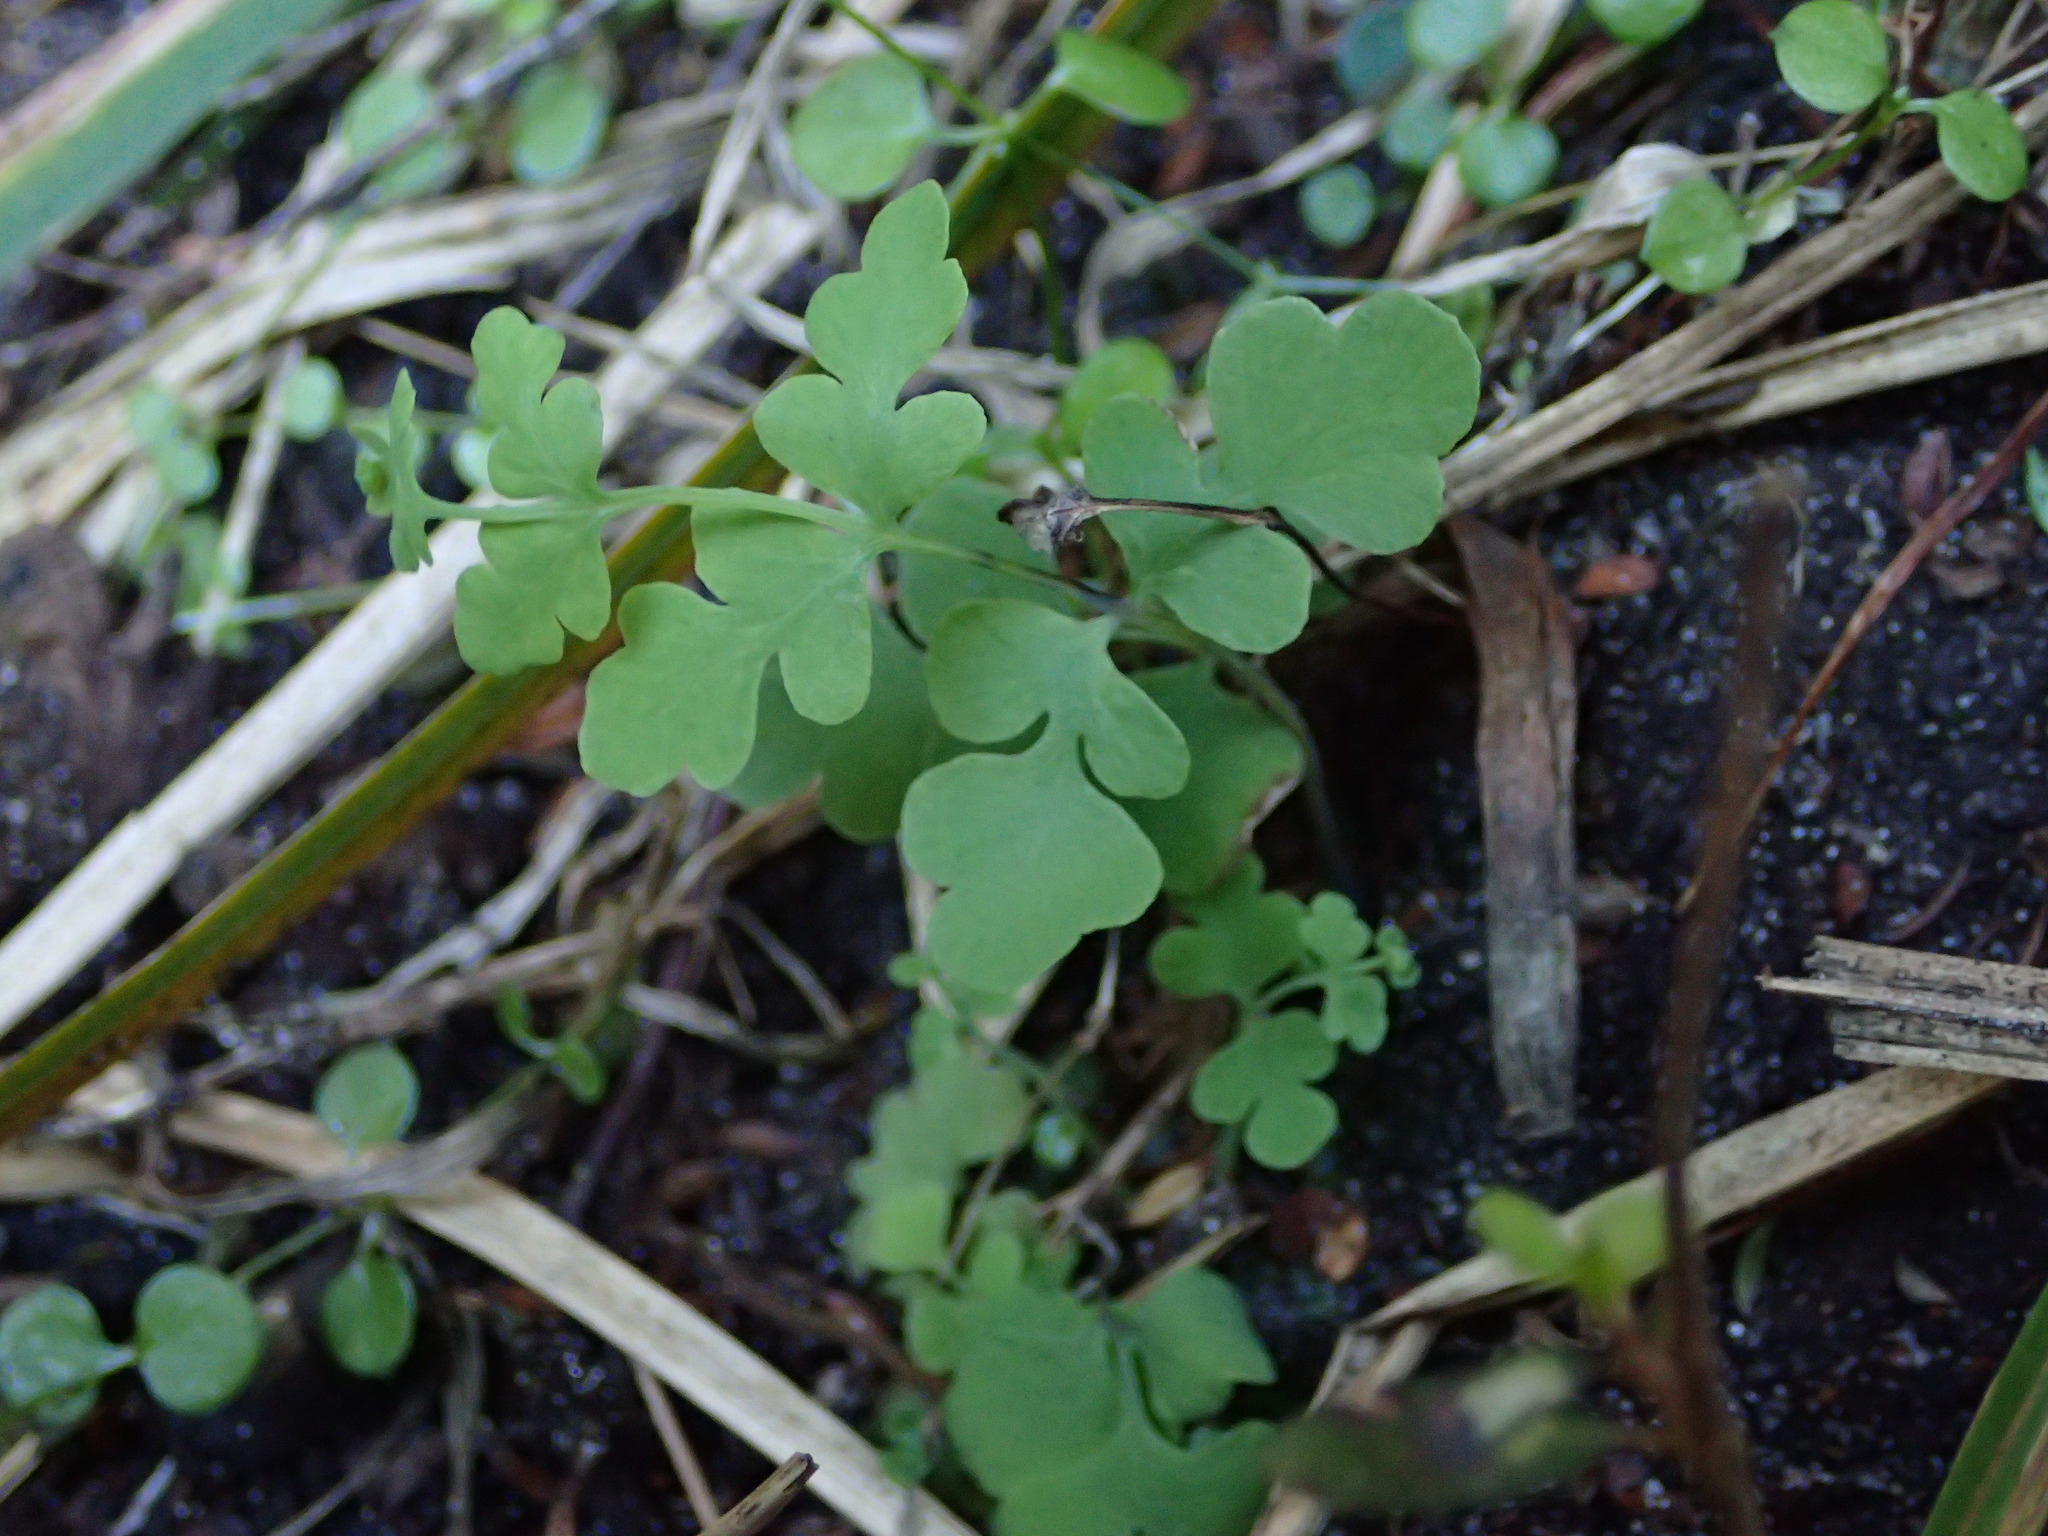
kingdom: Plantae
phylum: Tracheophyta
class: Polypodiopsida
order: Polypodiales
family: Dennstaedtiaceae
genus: Histiopteris
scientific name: Histiopteris incisa
